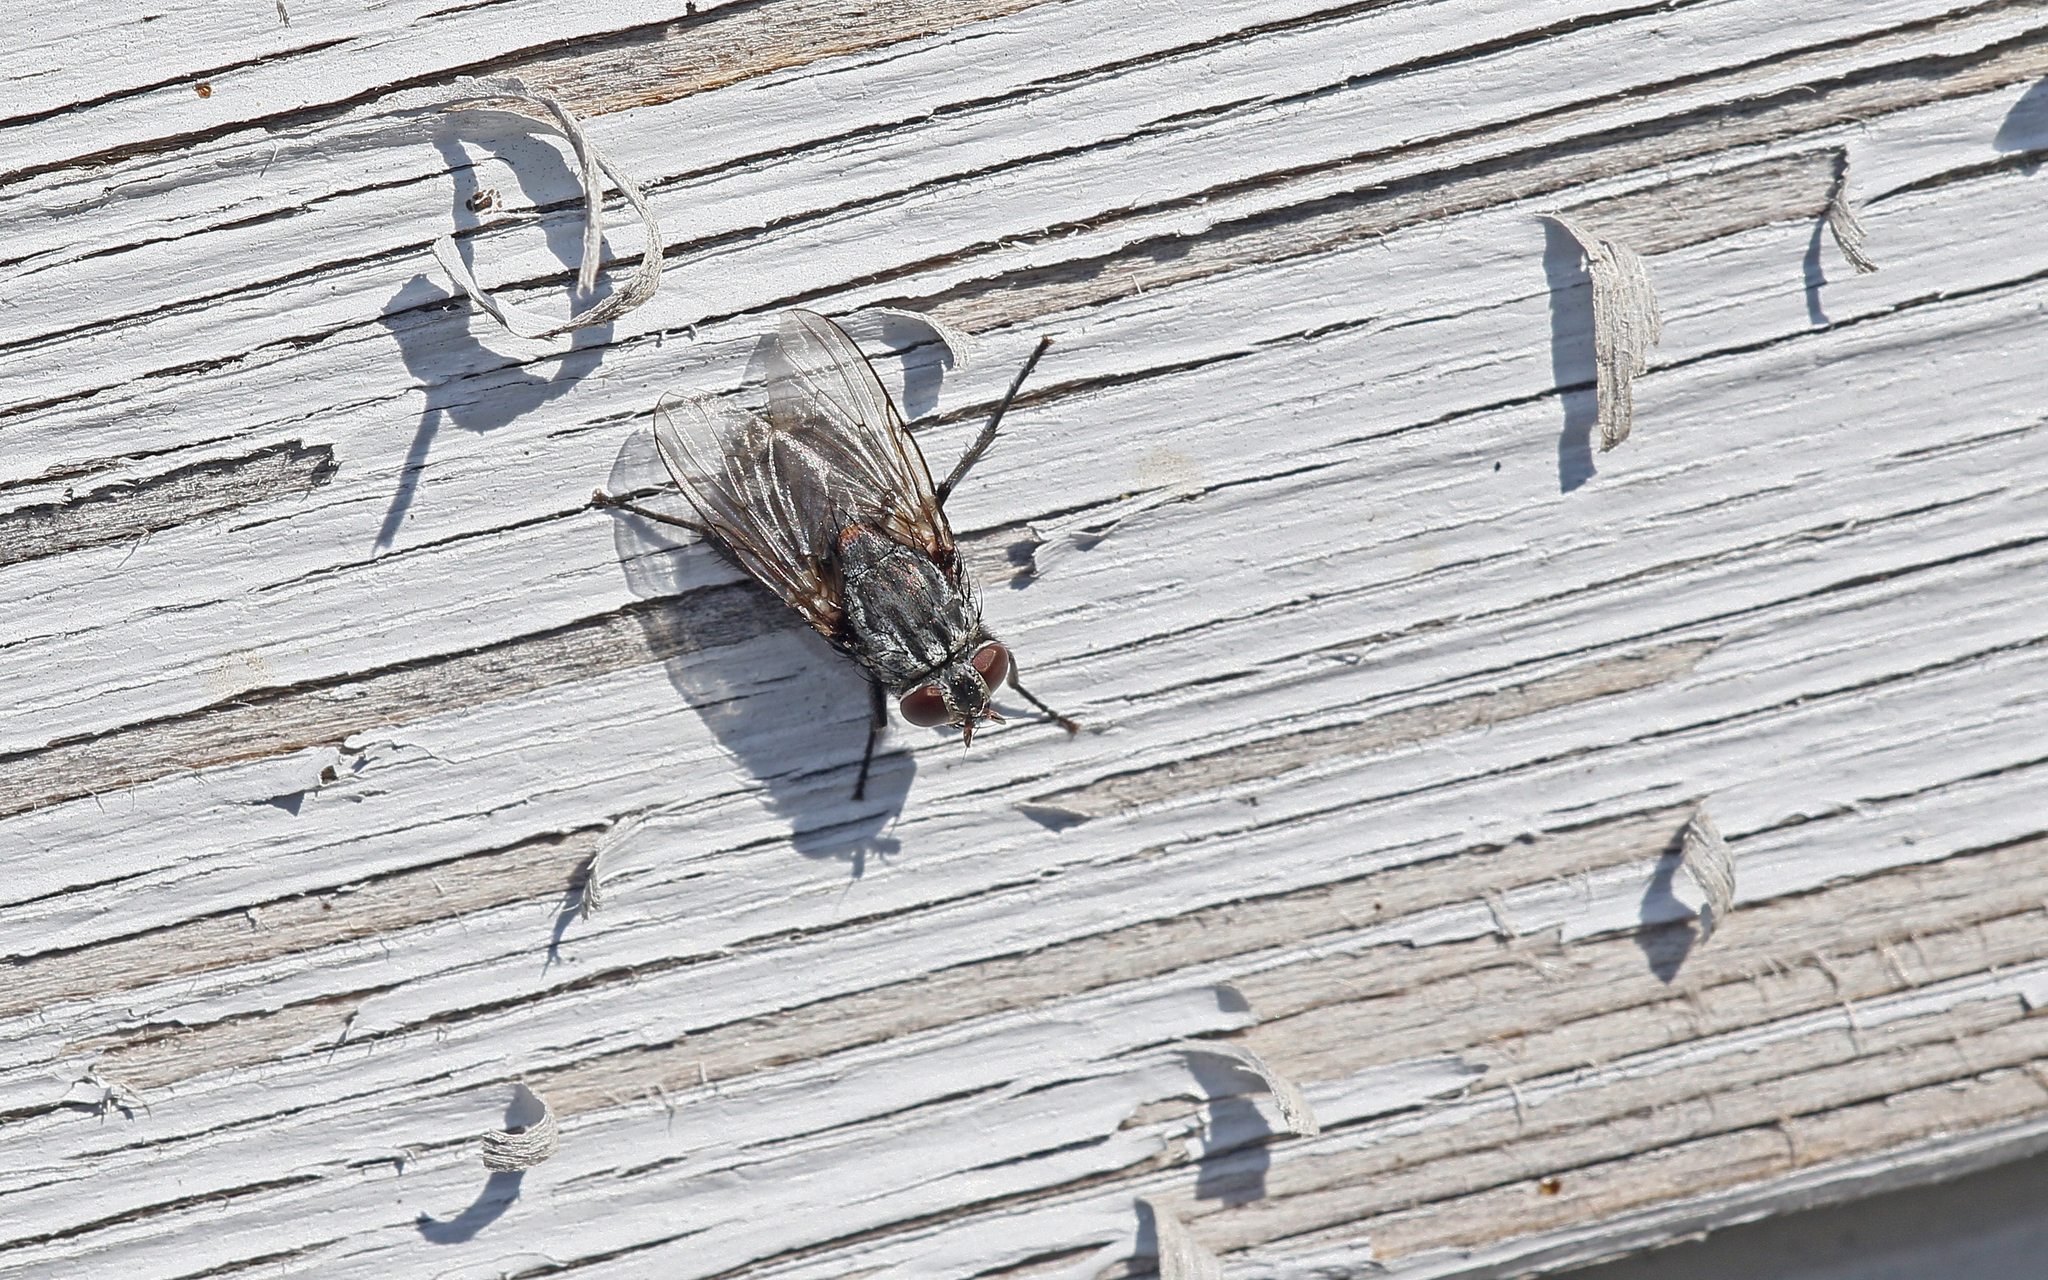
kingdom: Animalia
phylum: Arthropoda
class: Insecta
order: Diptera
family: Muscidae
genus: Muscina
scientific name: Muscina prolapsa
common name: Muscoid fly
